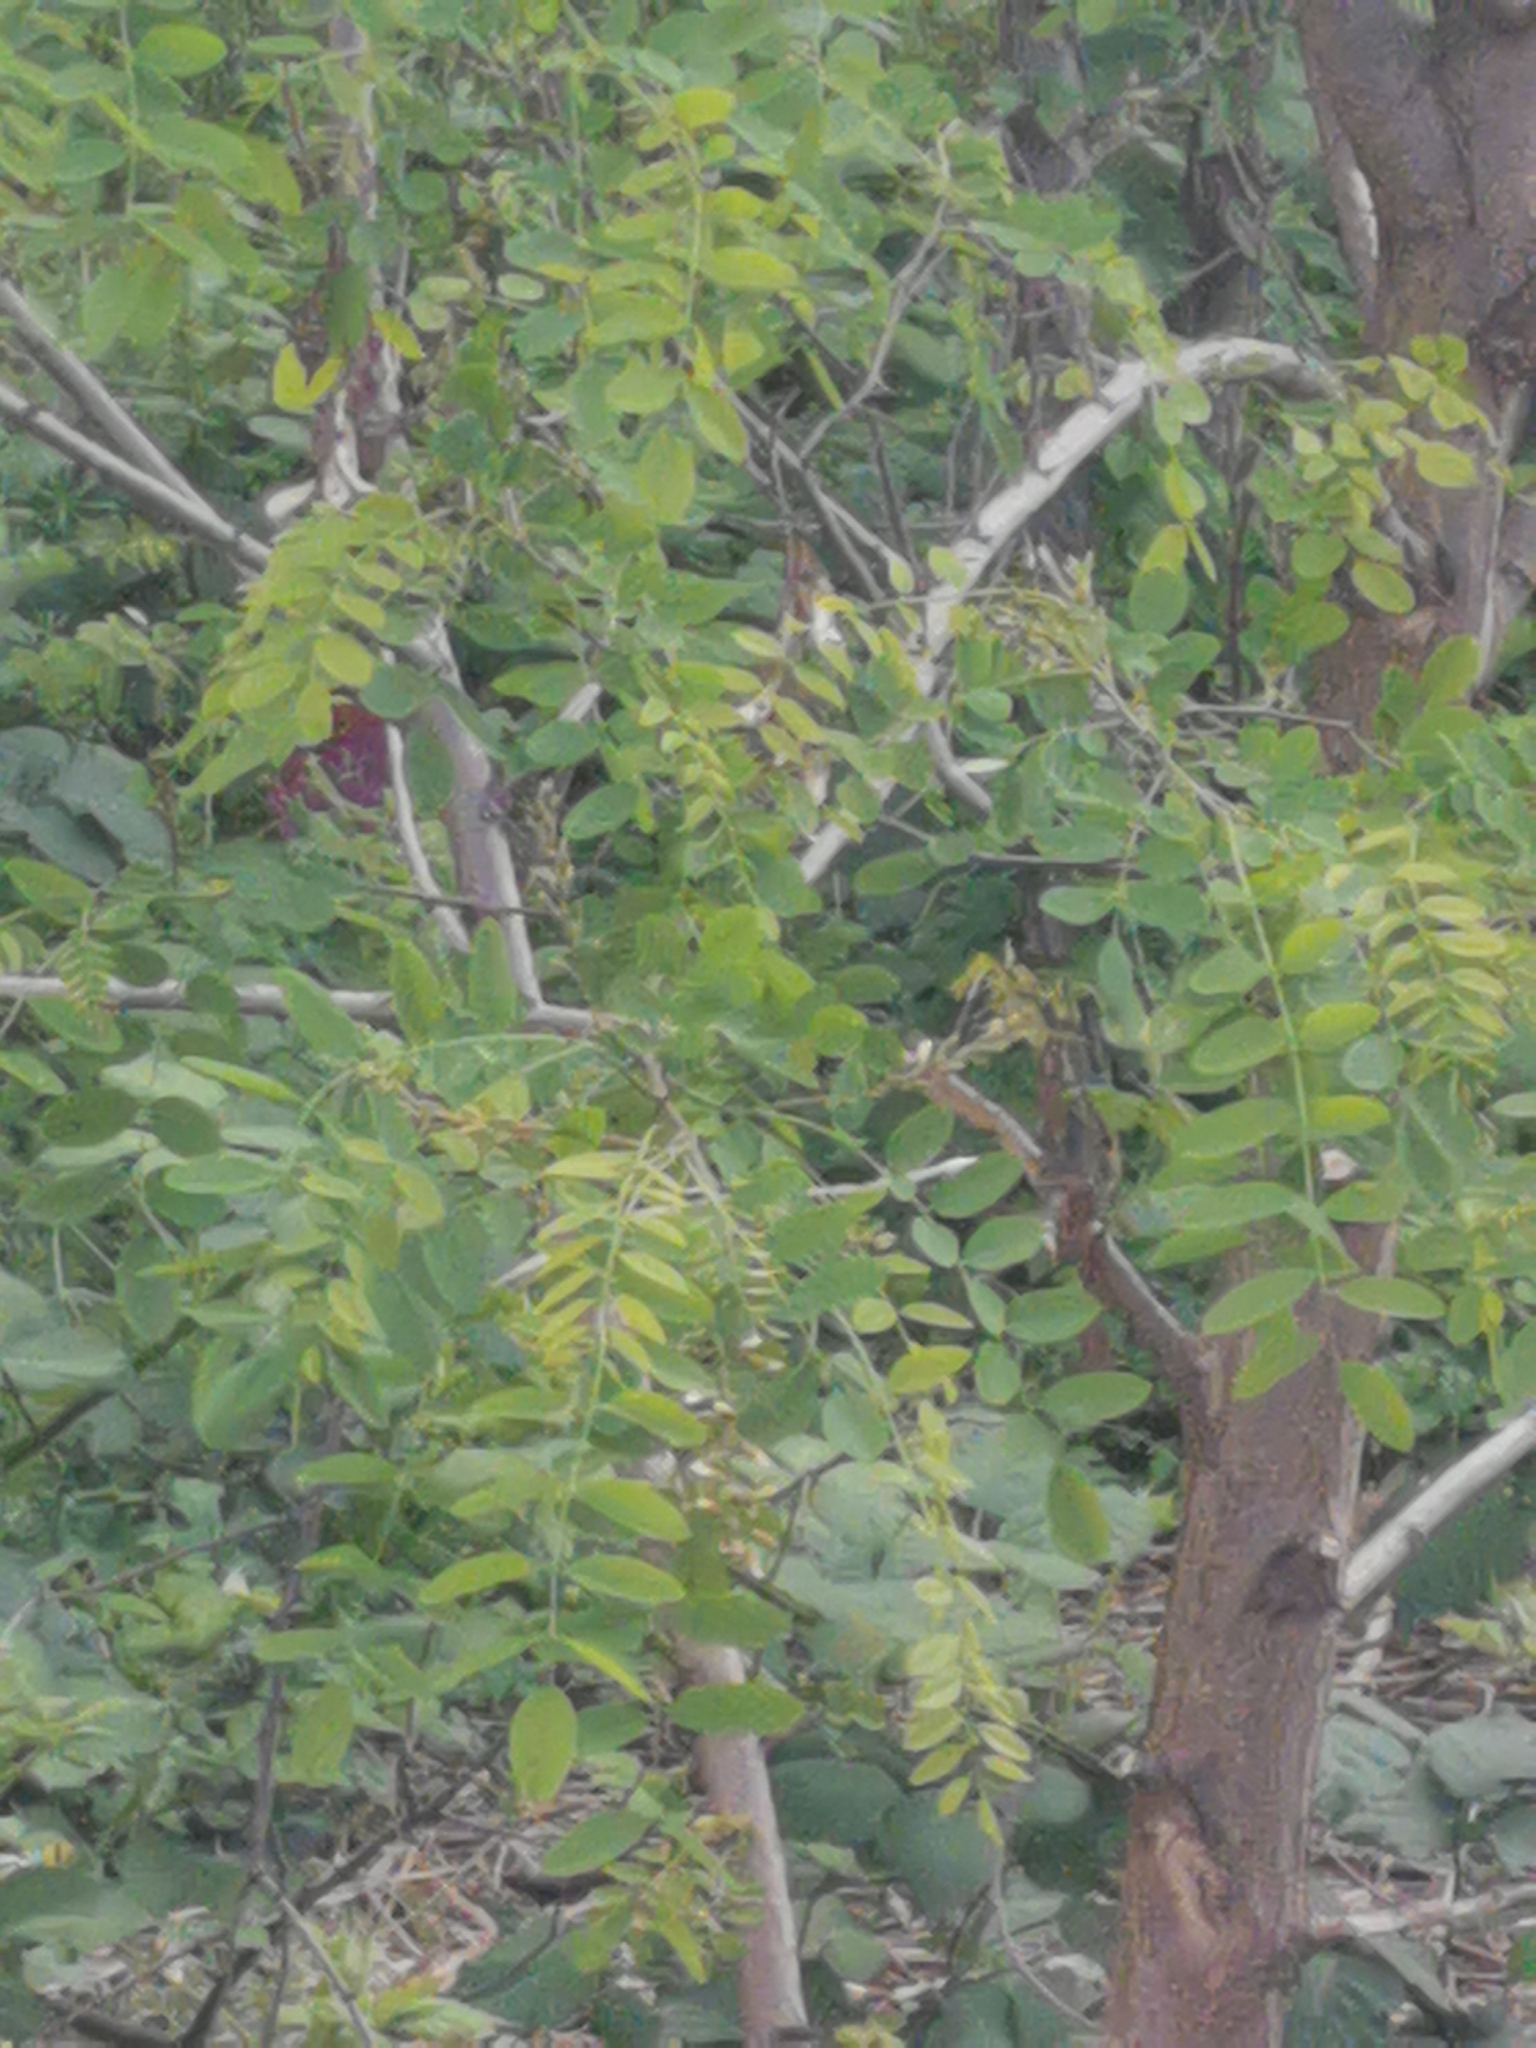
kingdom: Plantae
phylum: Tracheophyta
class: Magnoliopsida
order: Fabales
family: Fabaceae
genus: Robinia
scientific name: Robinia pseudoacacia
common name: Black locust
